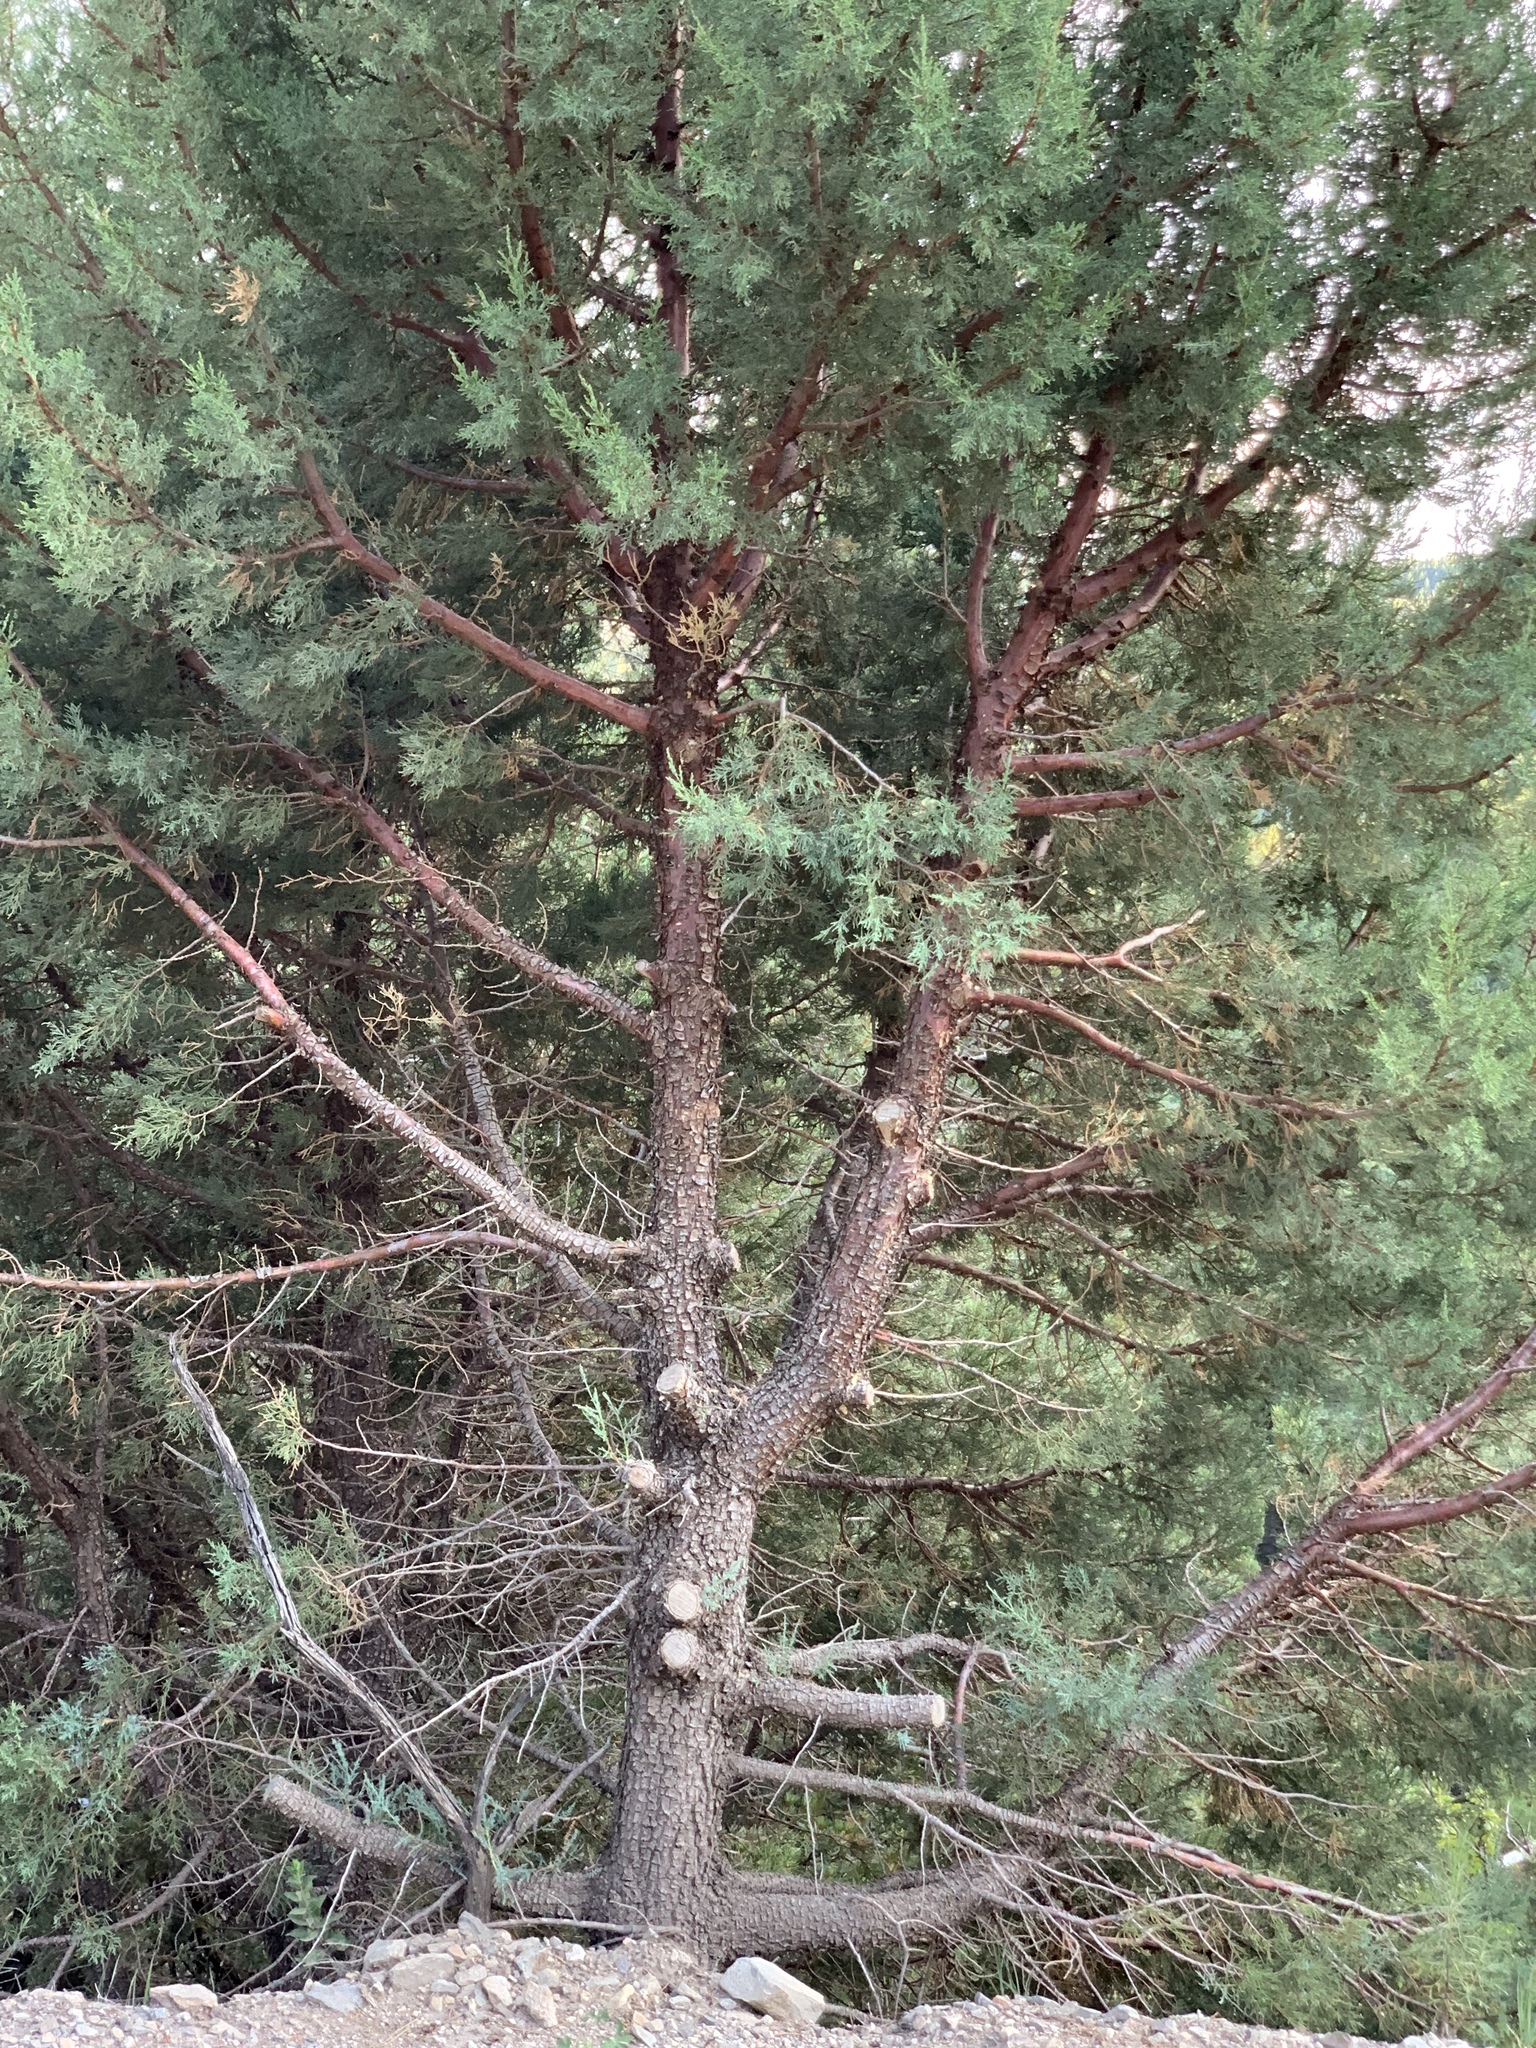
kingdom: Plantae
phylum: Tracheophyta
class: Pinopsida
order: Pinales
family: Cupressaceae
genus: Juniperus
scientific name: Juniperus deppeana
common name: Alligator juniper
